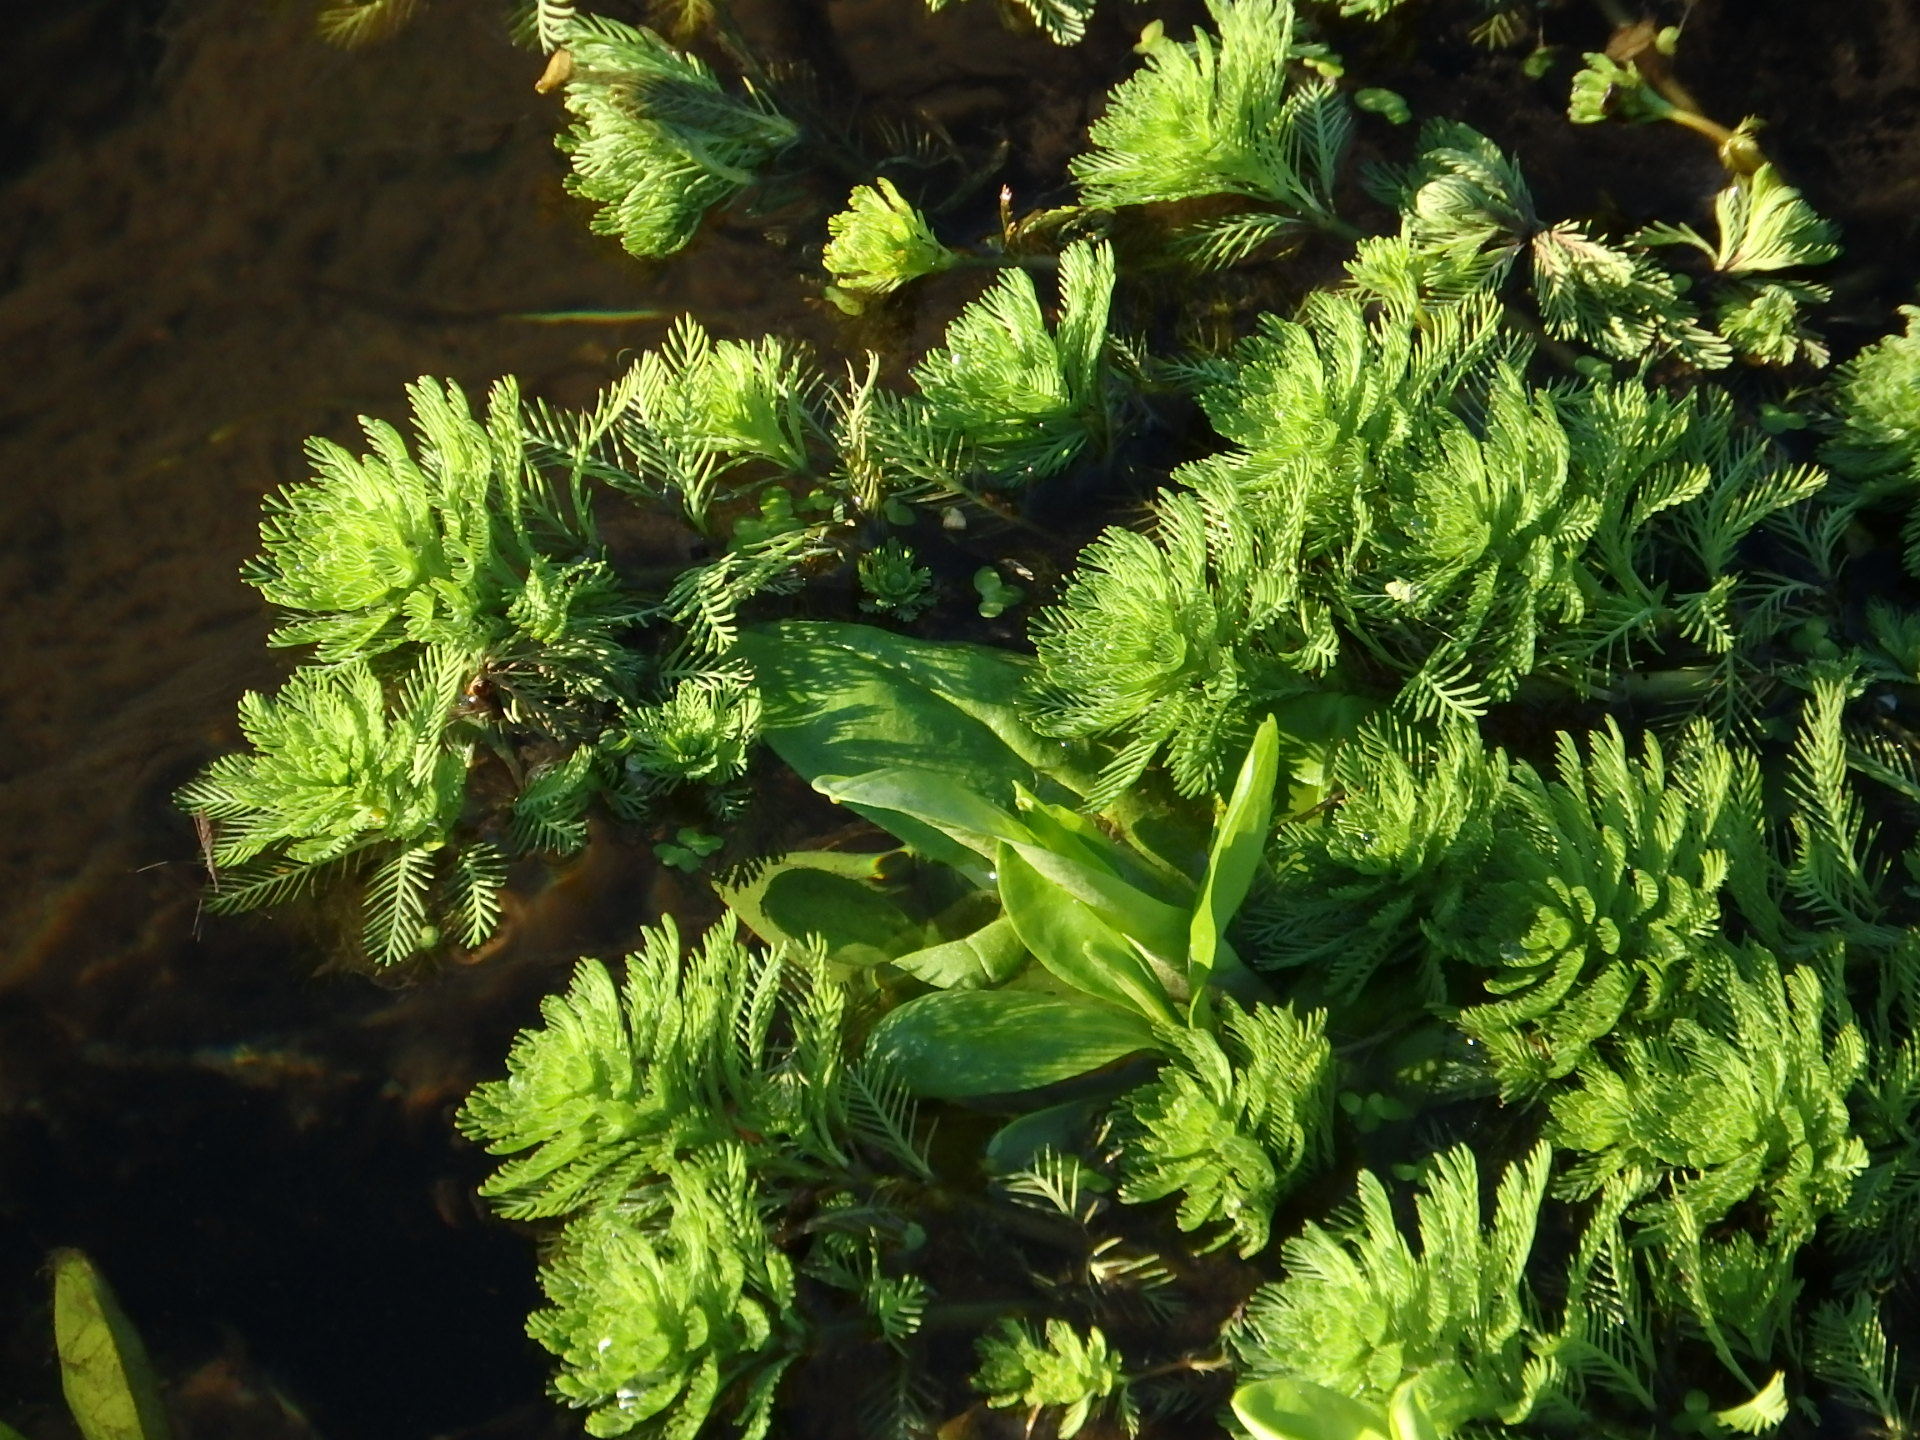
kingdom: Plantae
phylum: Tracheophyta
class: Magnoliopsida
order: Saxifragales
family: Haloragaceae
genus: Myriophyllum
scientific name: Myriophyllum aquaticum
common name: Parrot's feather
